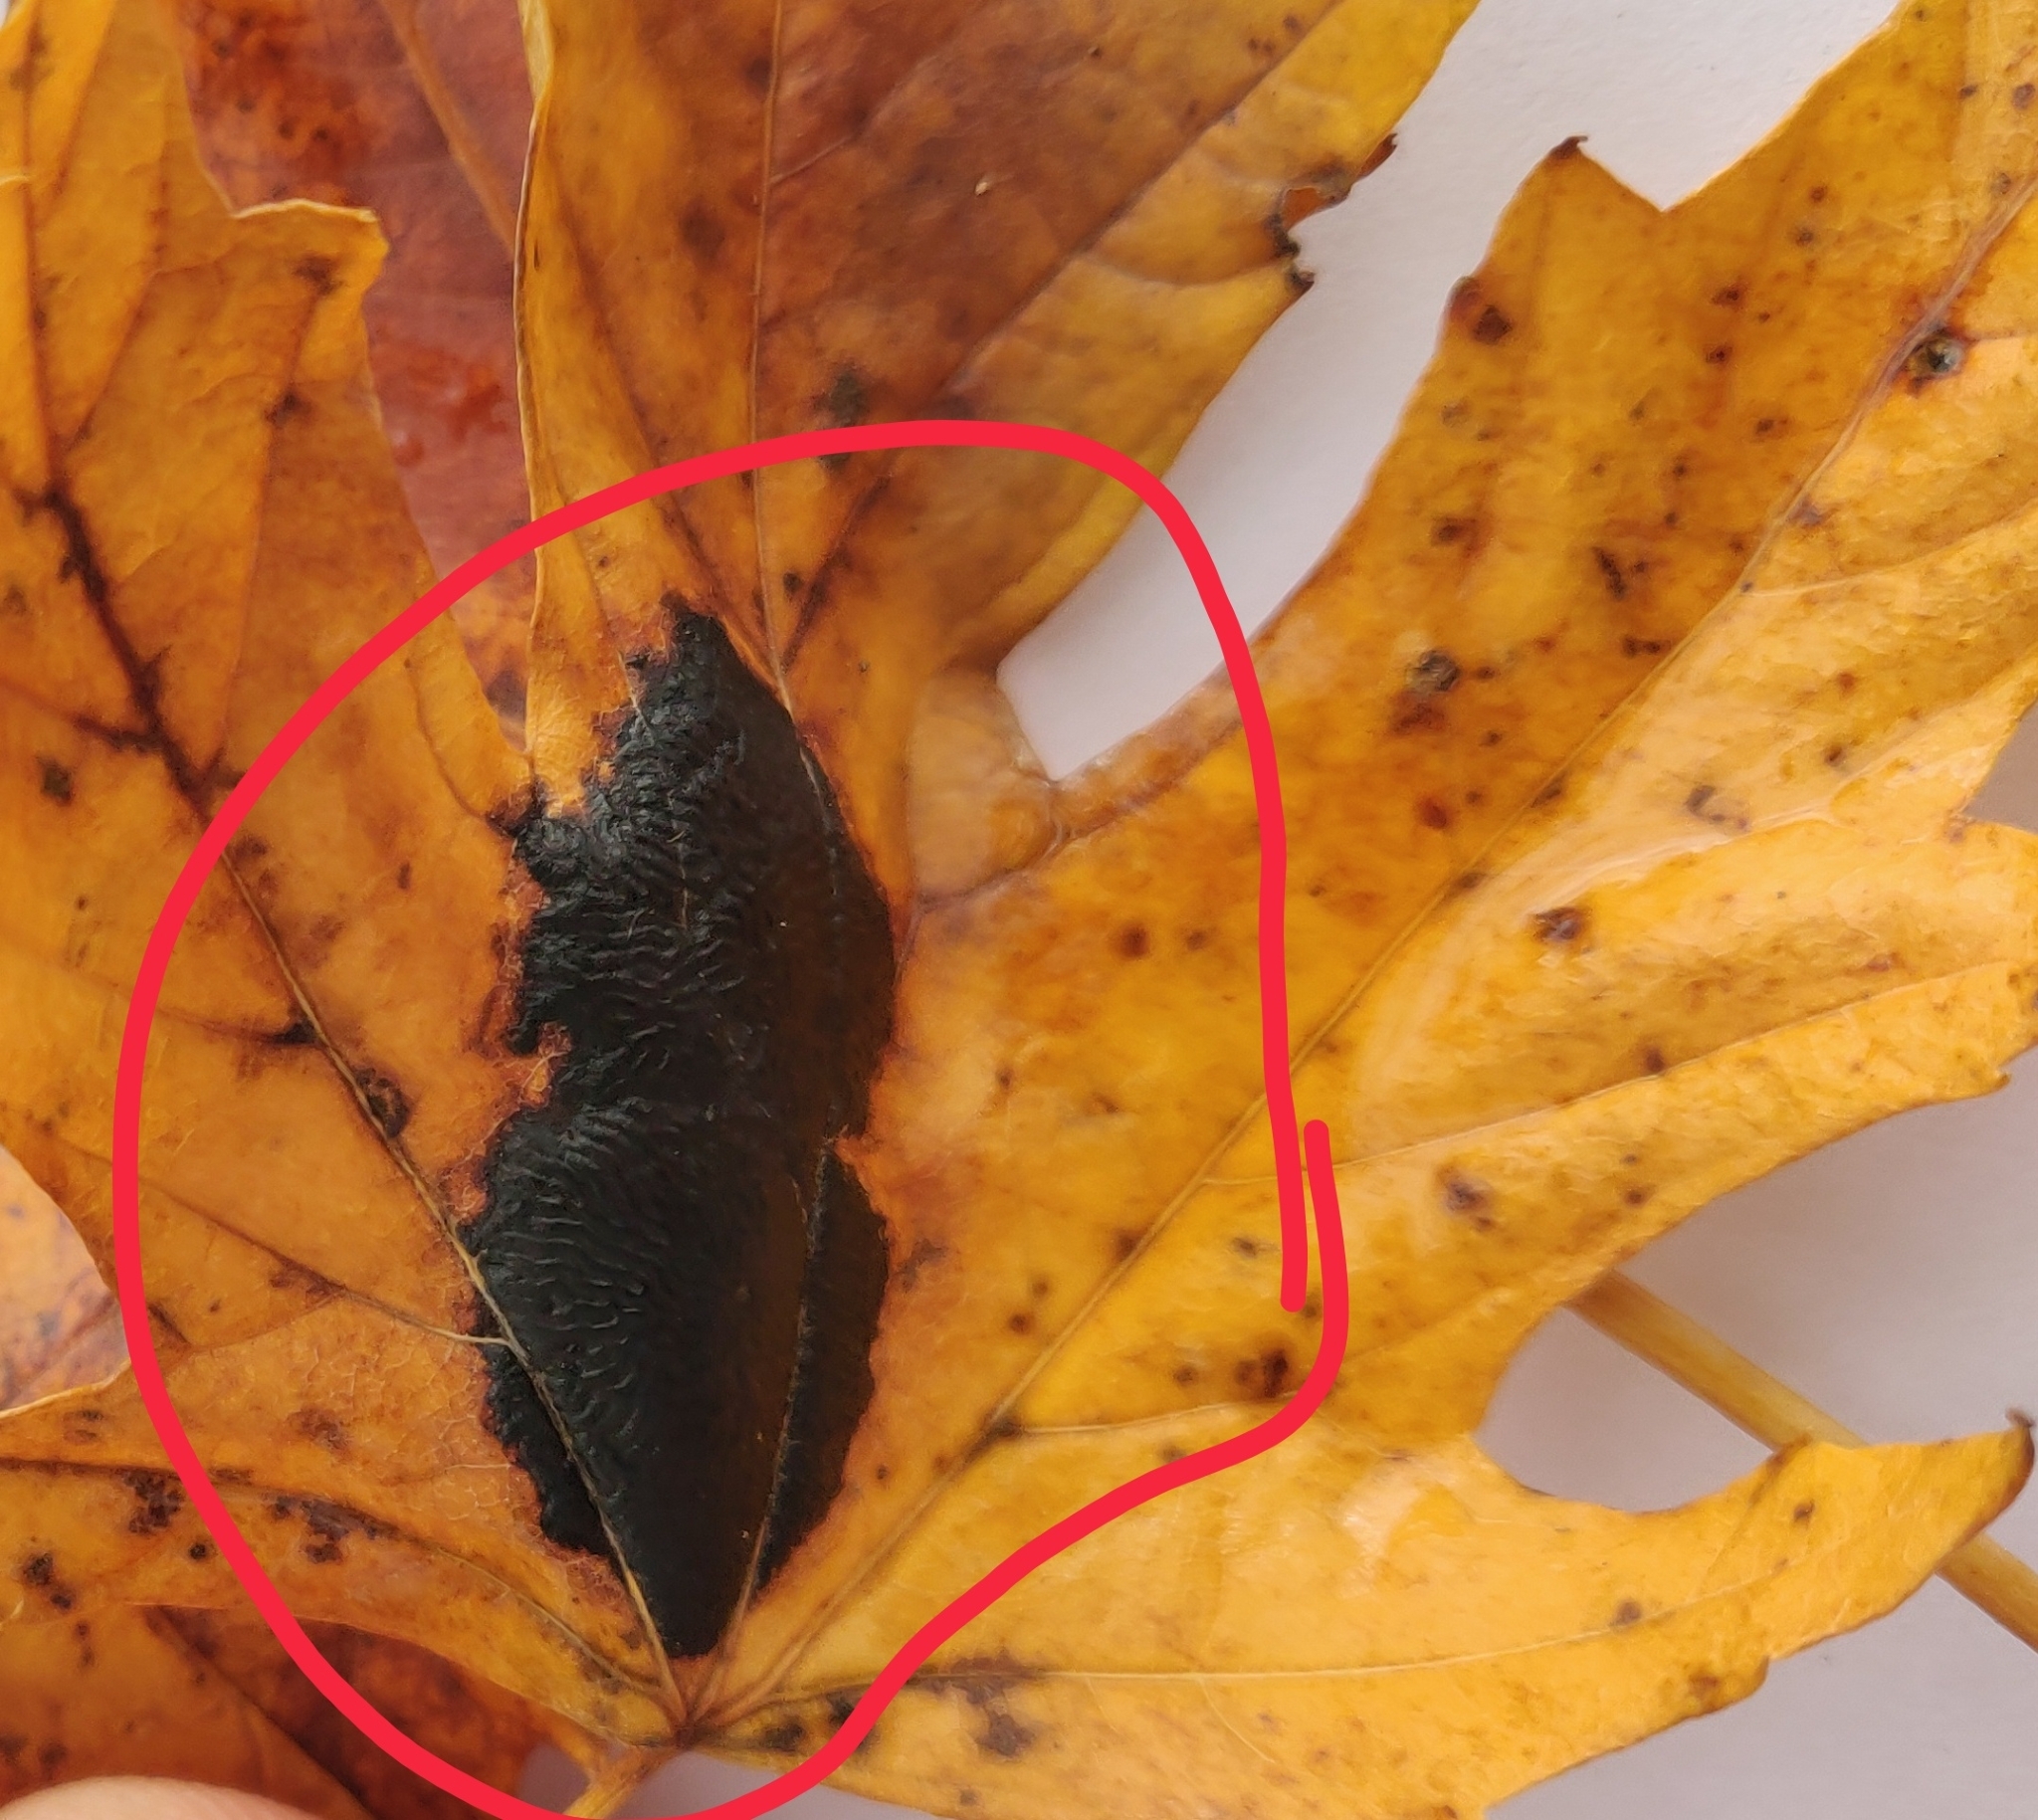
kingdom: Fungi
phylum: Ascomycota
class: Leotiomycetes
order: Rhytismatales
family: Rhytismataceae
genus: Rhytisma
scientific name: Rhytisma americanum
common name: American tar spot
